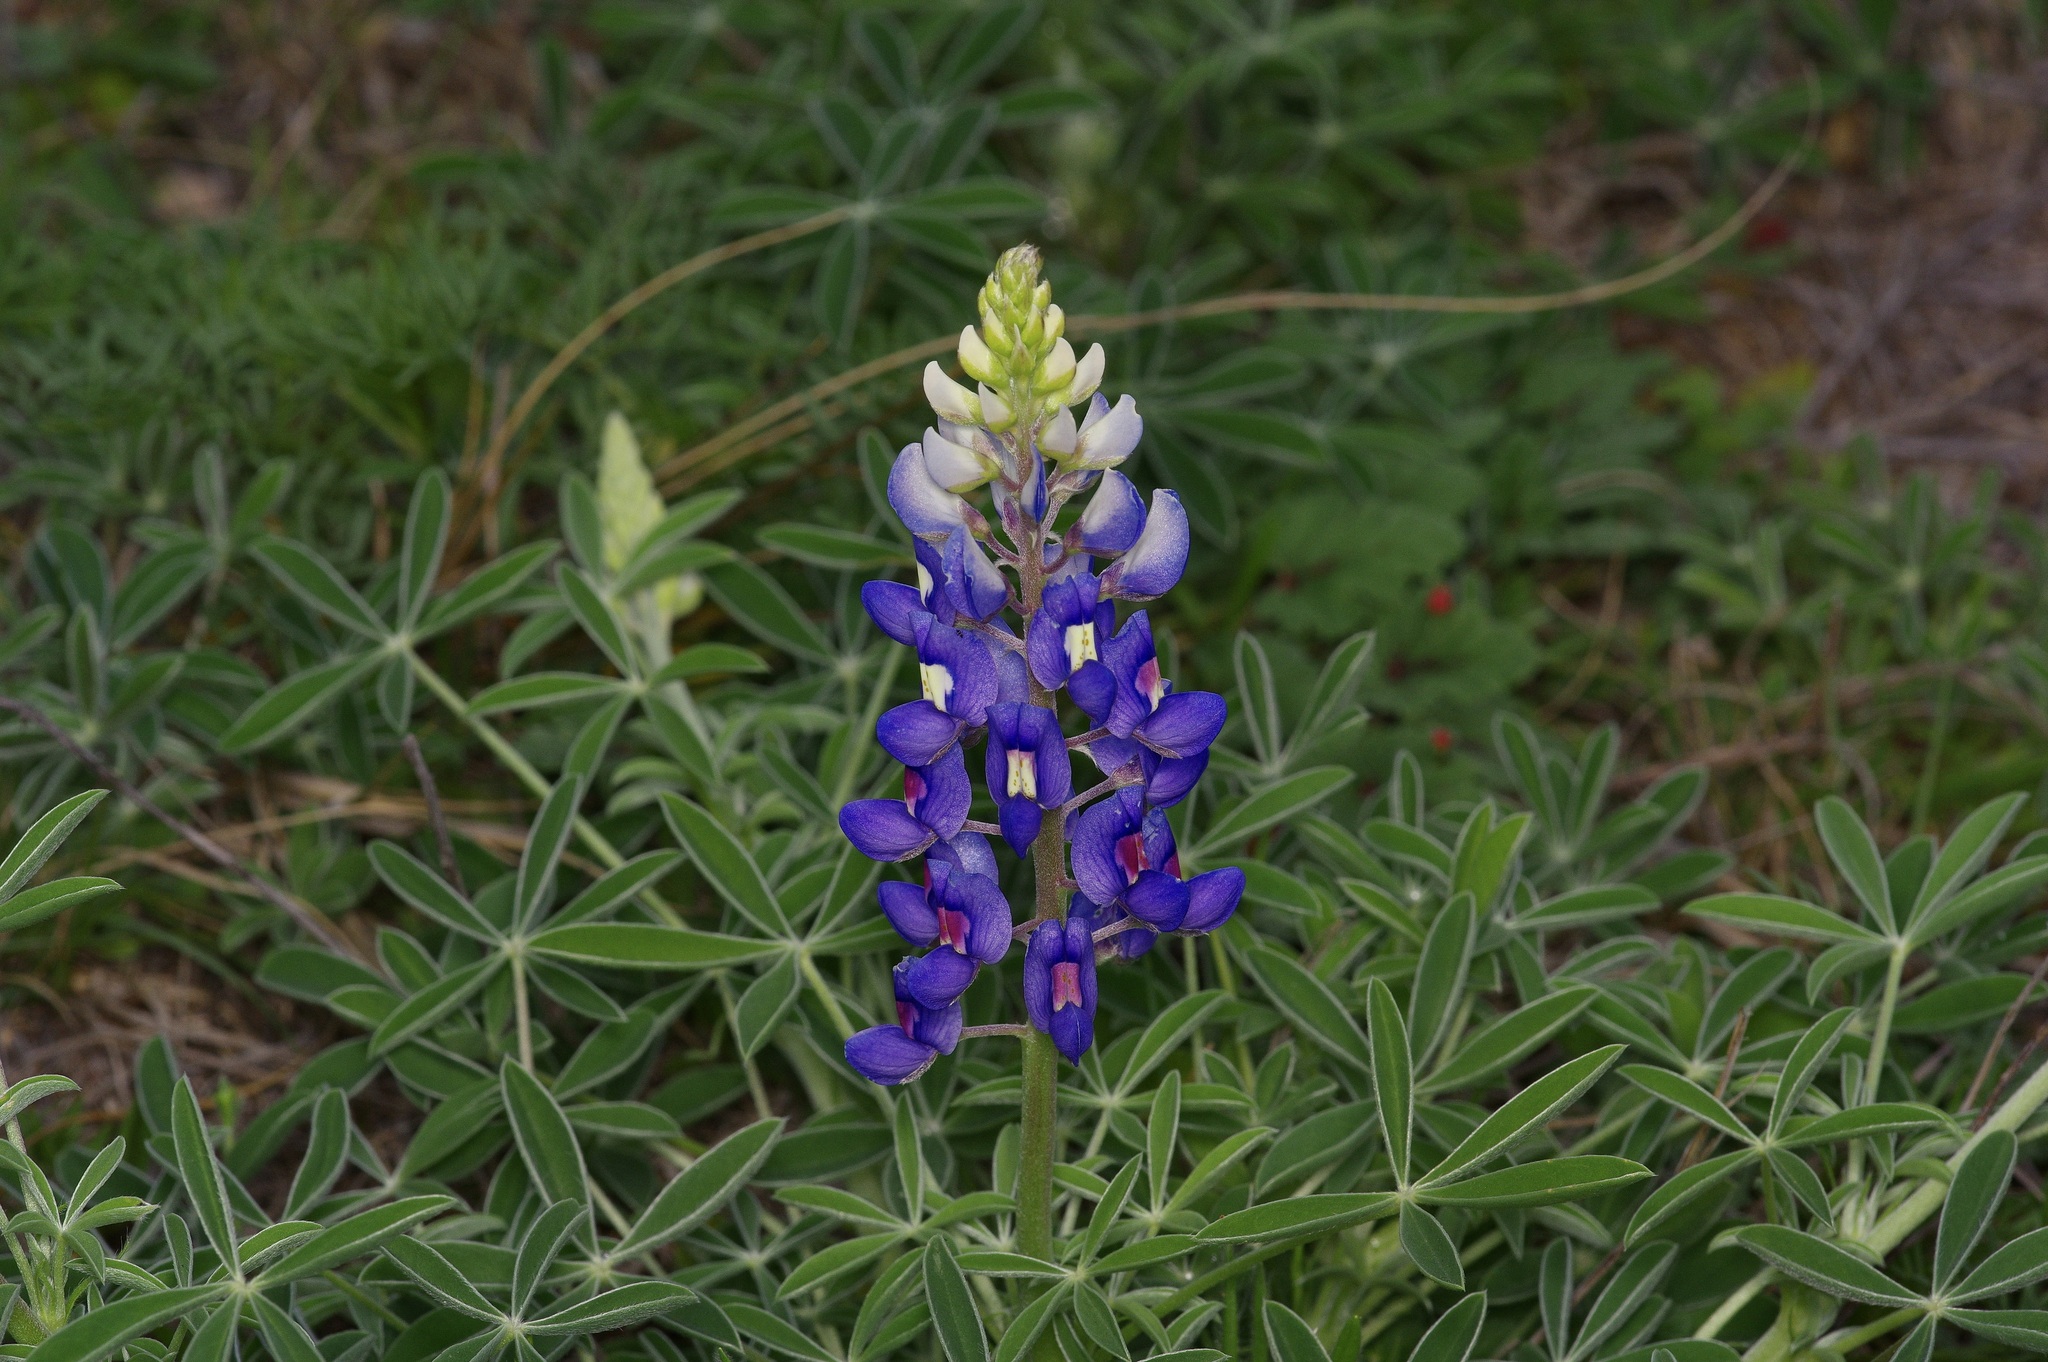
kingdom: Plantae
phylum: Tracheophyta
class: Magnoliopsida
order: Fabales
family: Fabaceae
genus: Lupinus
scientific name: Lupinus texensis
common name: Texas bluebonnet
